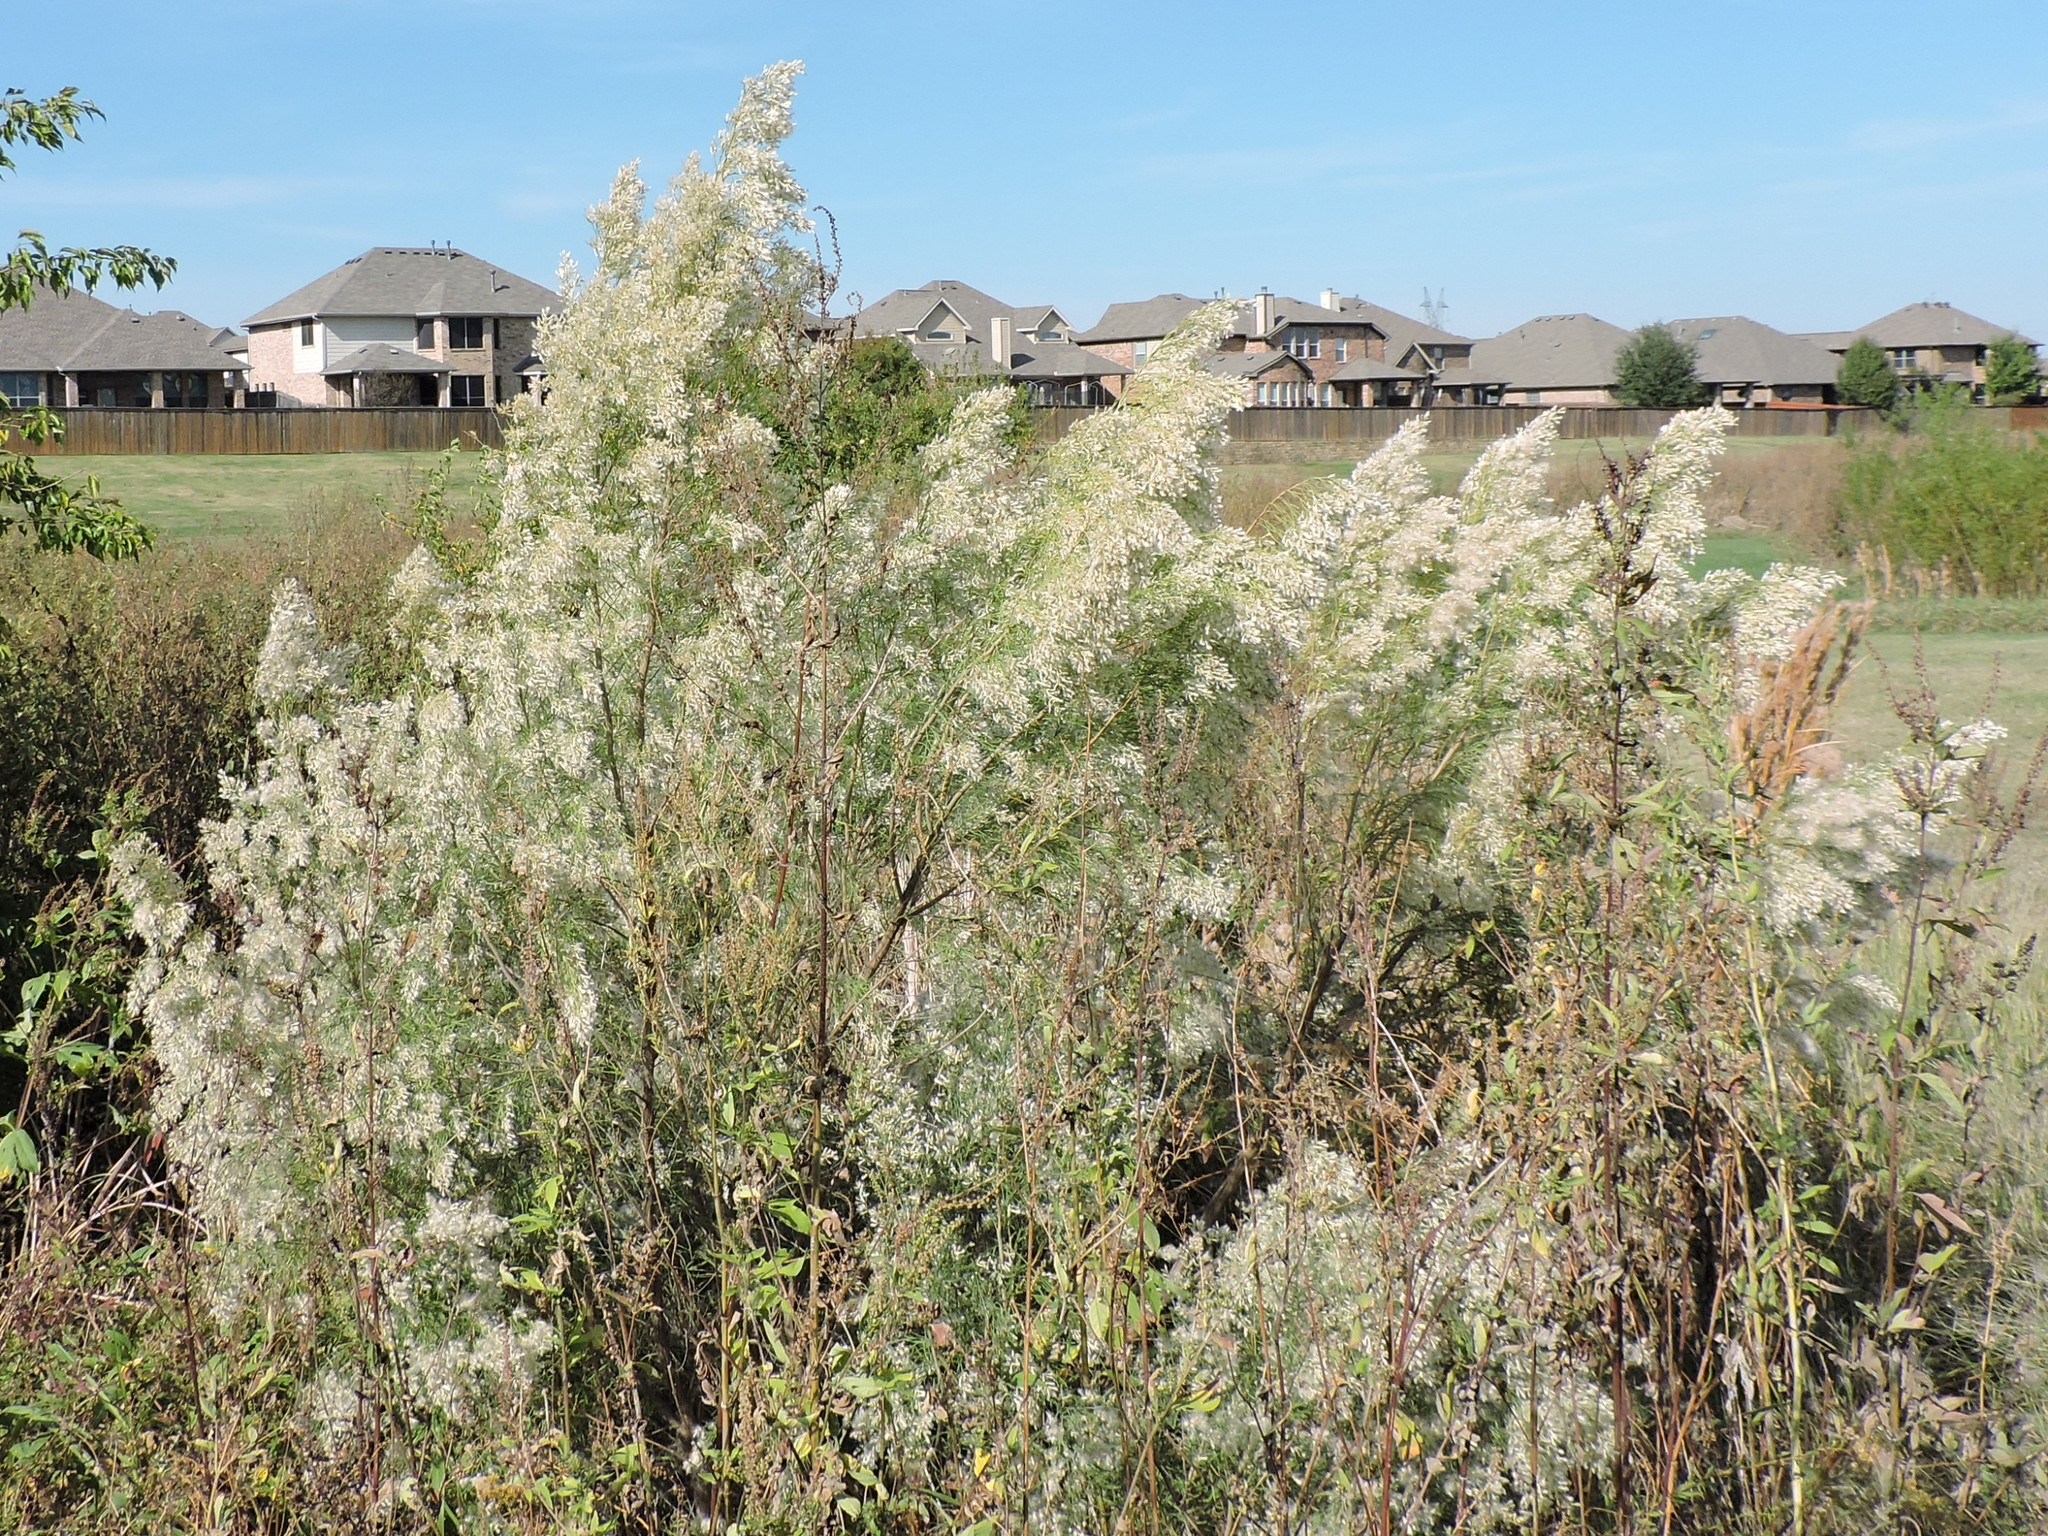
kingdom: Plantae
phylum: Tracheophyta
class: Magnoliopsida
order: Asterales
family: Asteraceae
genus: Baccharis
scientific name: Baccharis neglecta
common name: Roosevelt-weed
